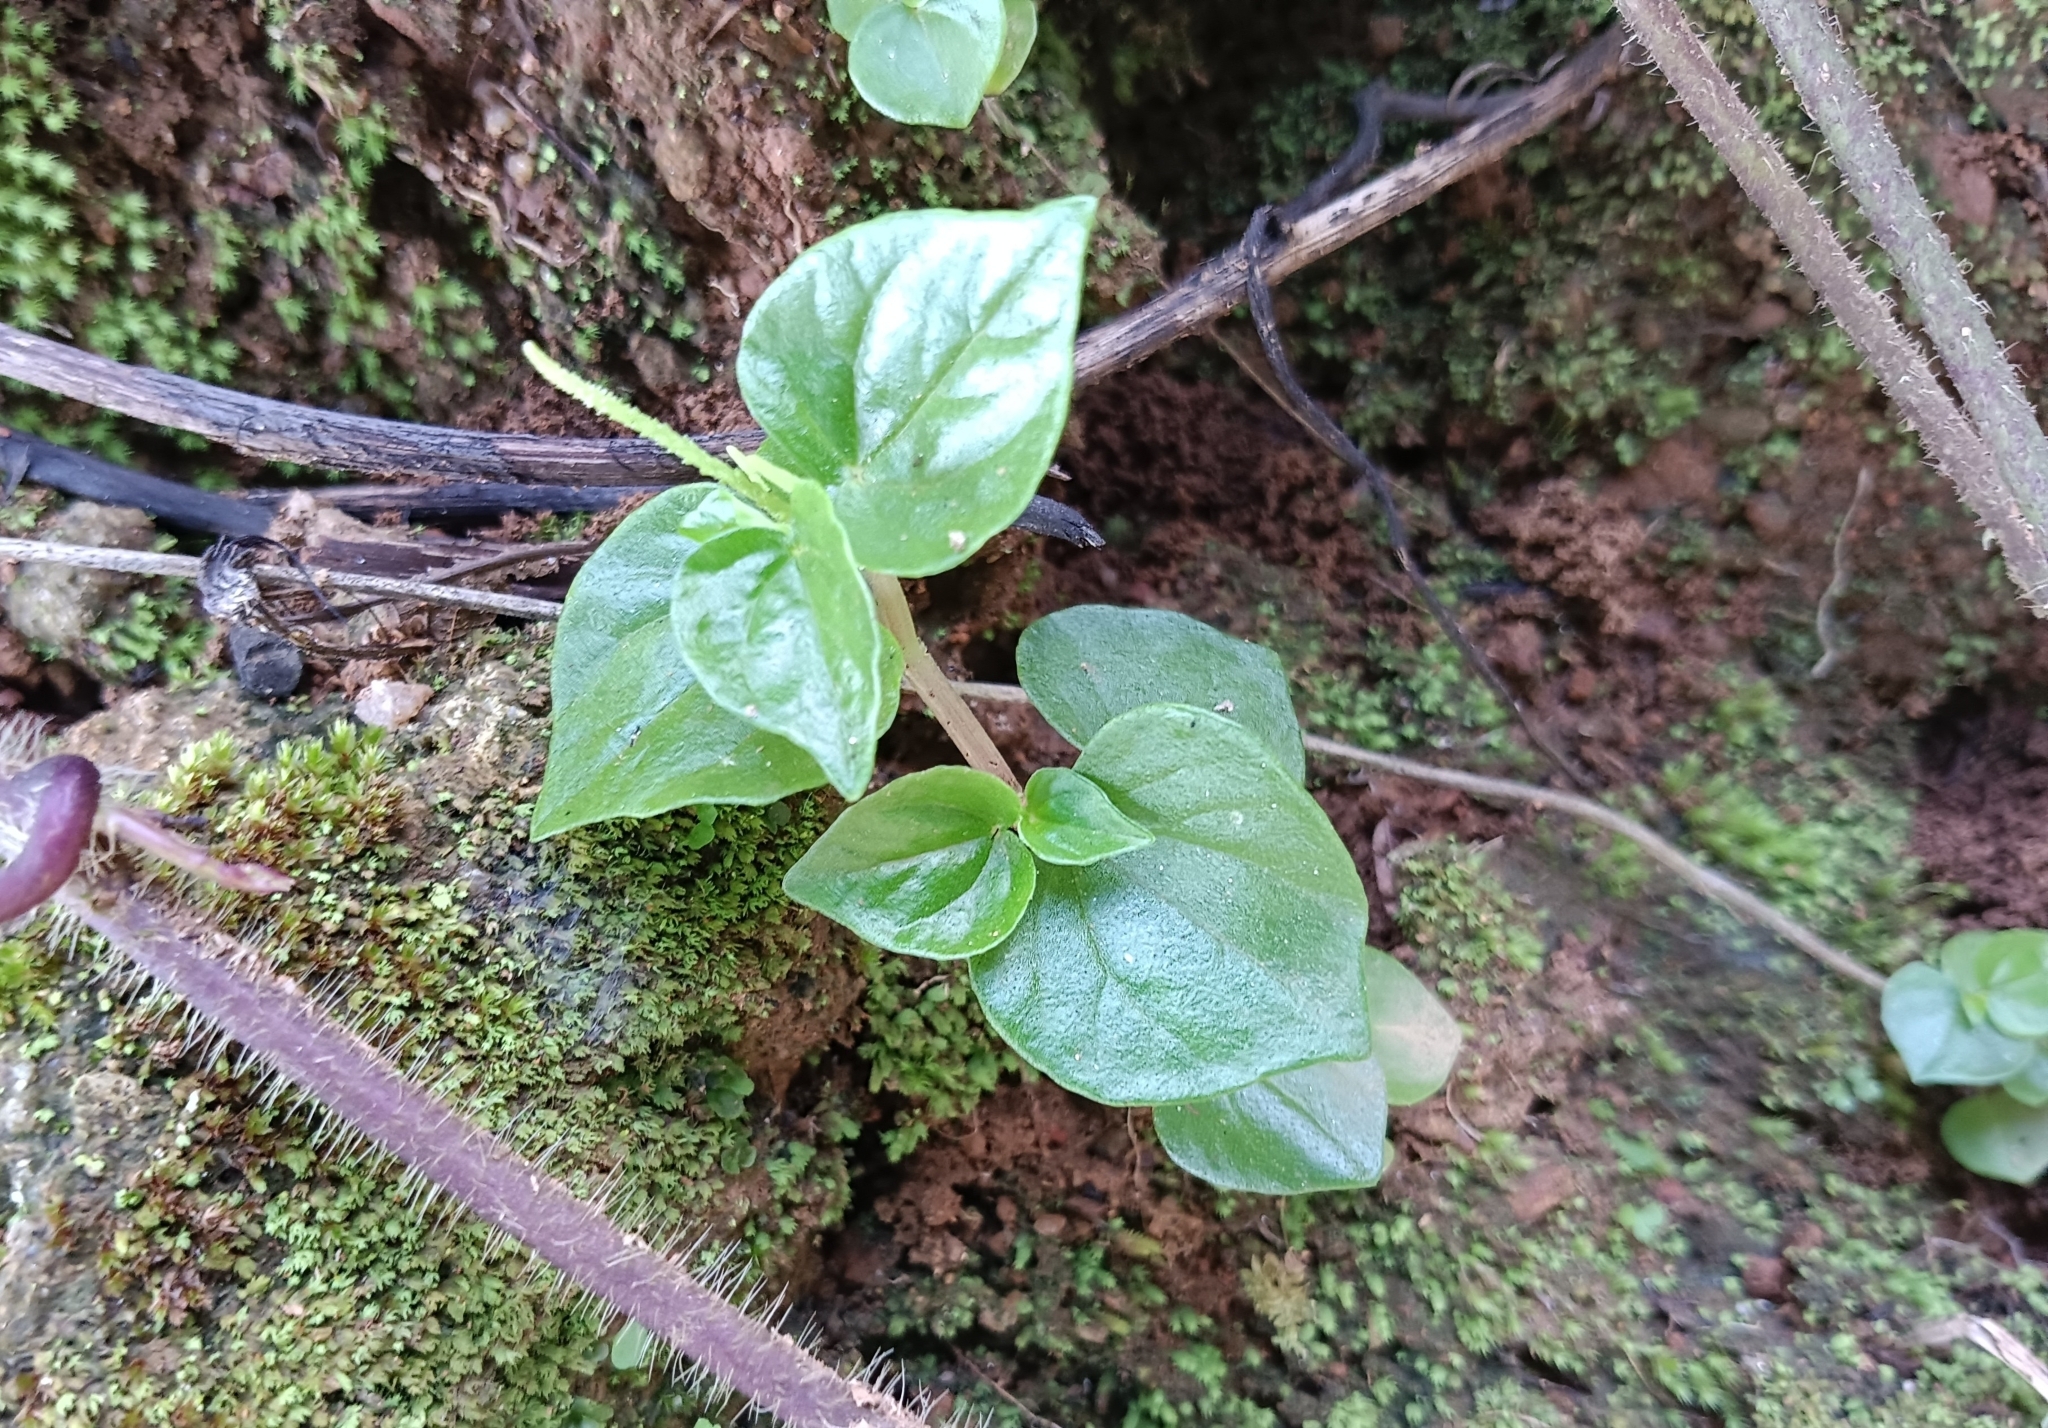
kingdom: Plantae
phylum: Tracheophyta
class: Magnoliopsida
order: Piperales
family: Piperaceae
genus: Peperomia
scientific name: Peperomia pellucida
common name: Man to man
